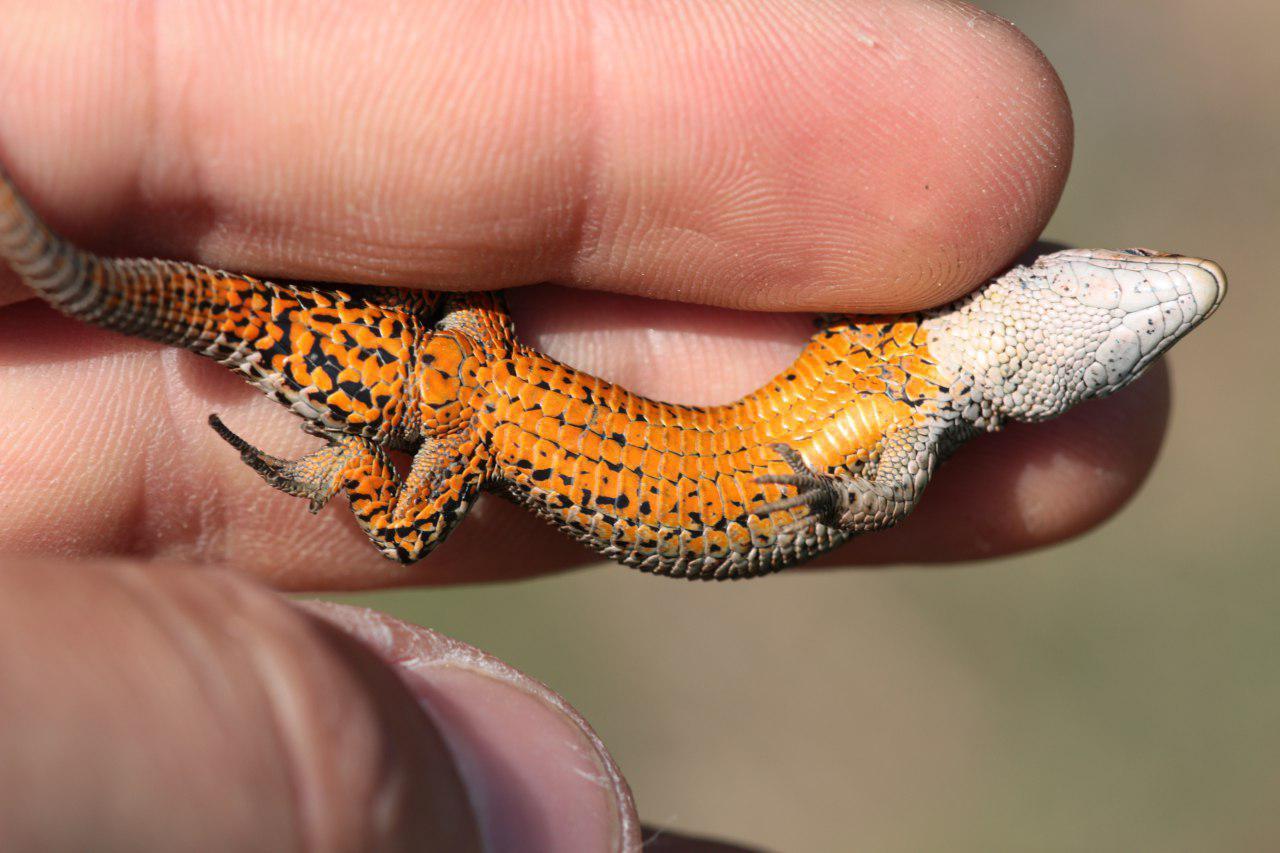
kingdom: Animalia
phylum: Chordata
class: Squamata
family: Lacertidae
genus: Zootoca
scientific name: Zootoca vivipara
